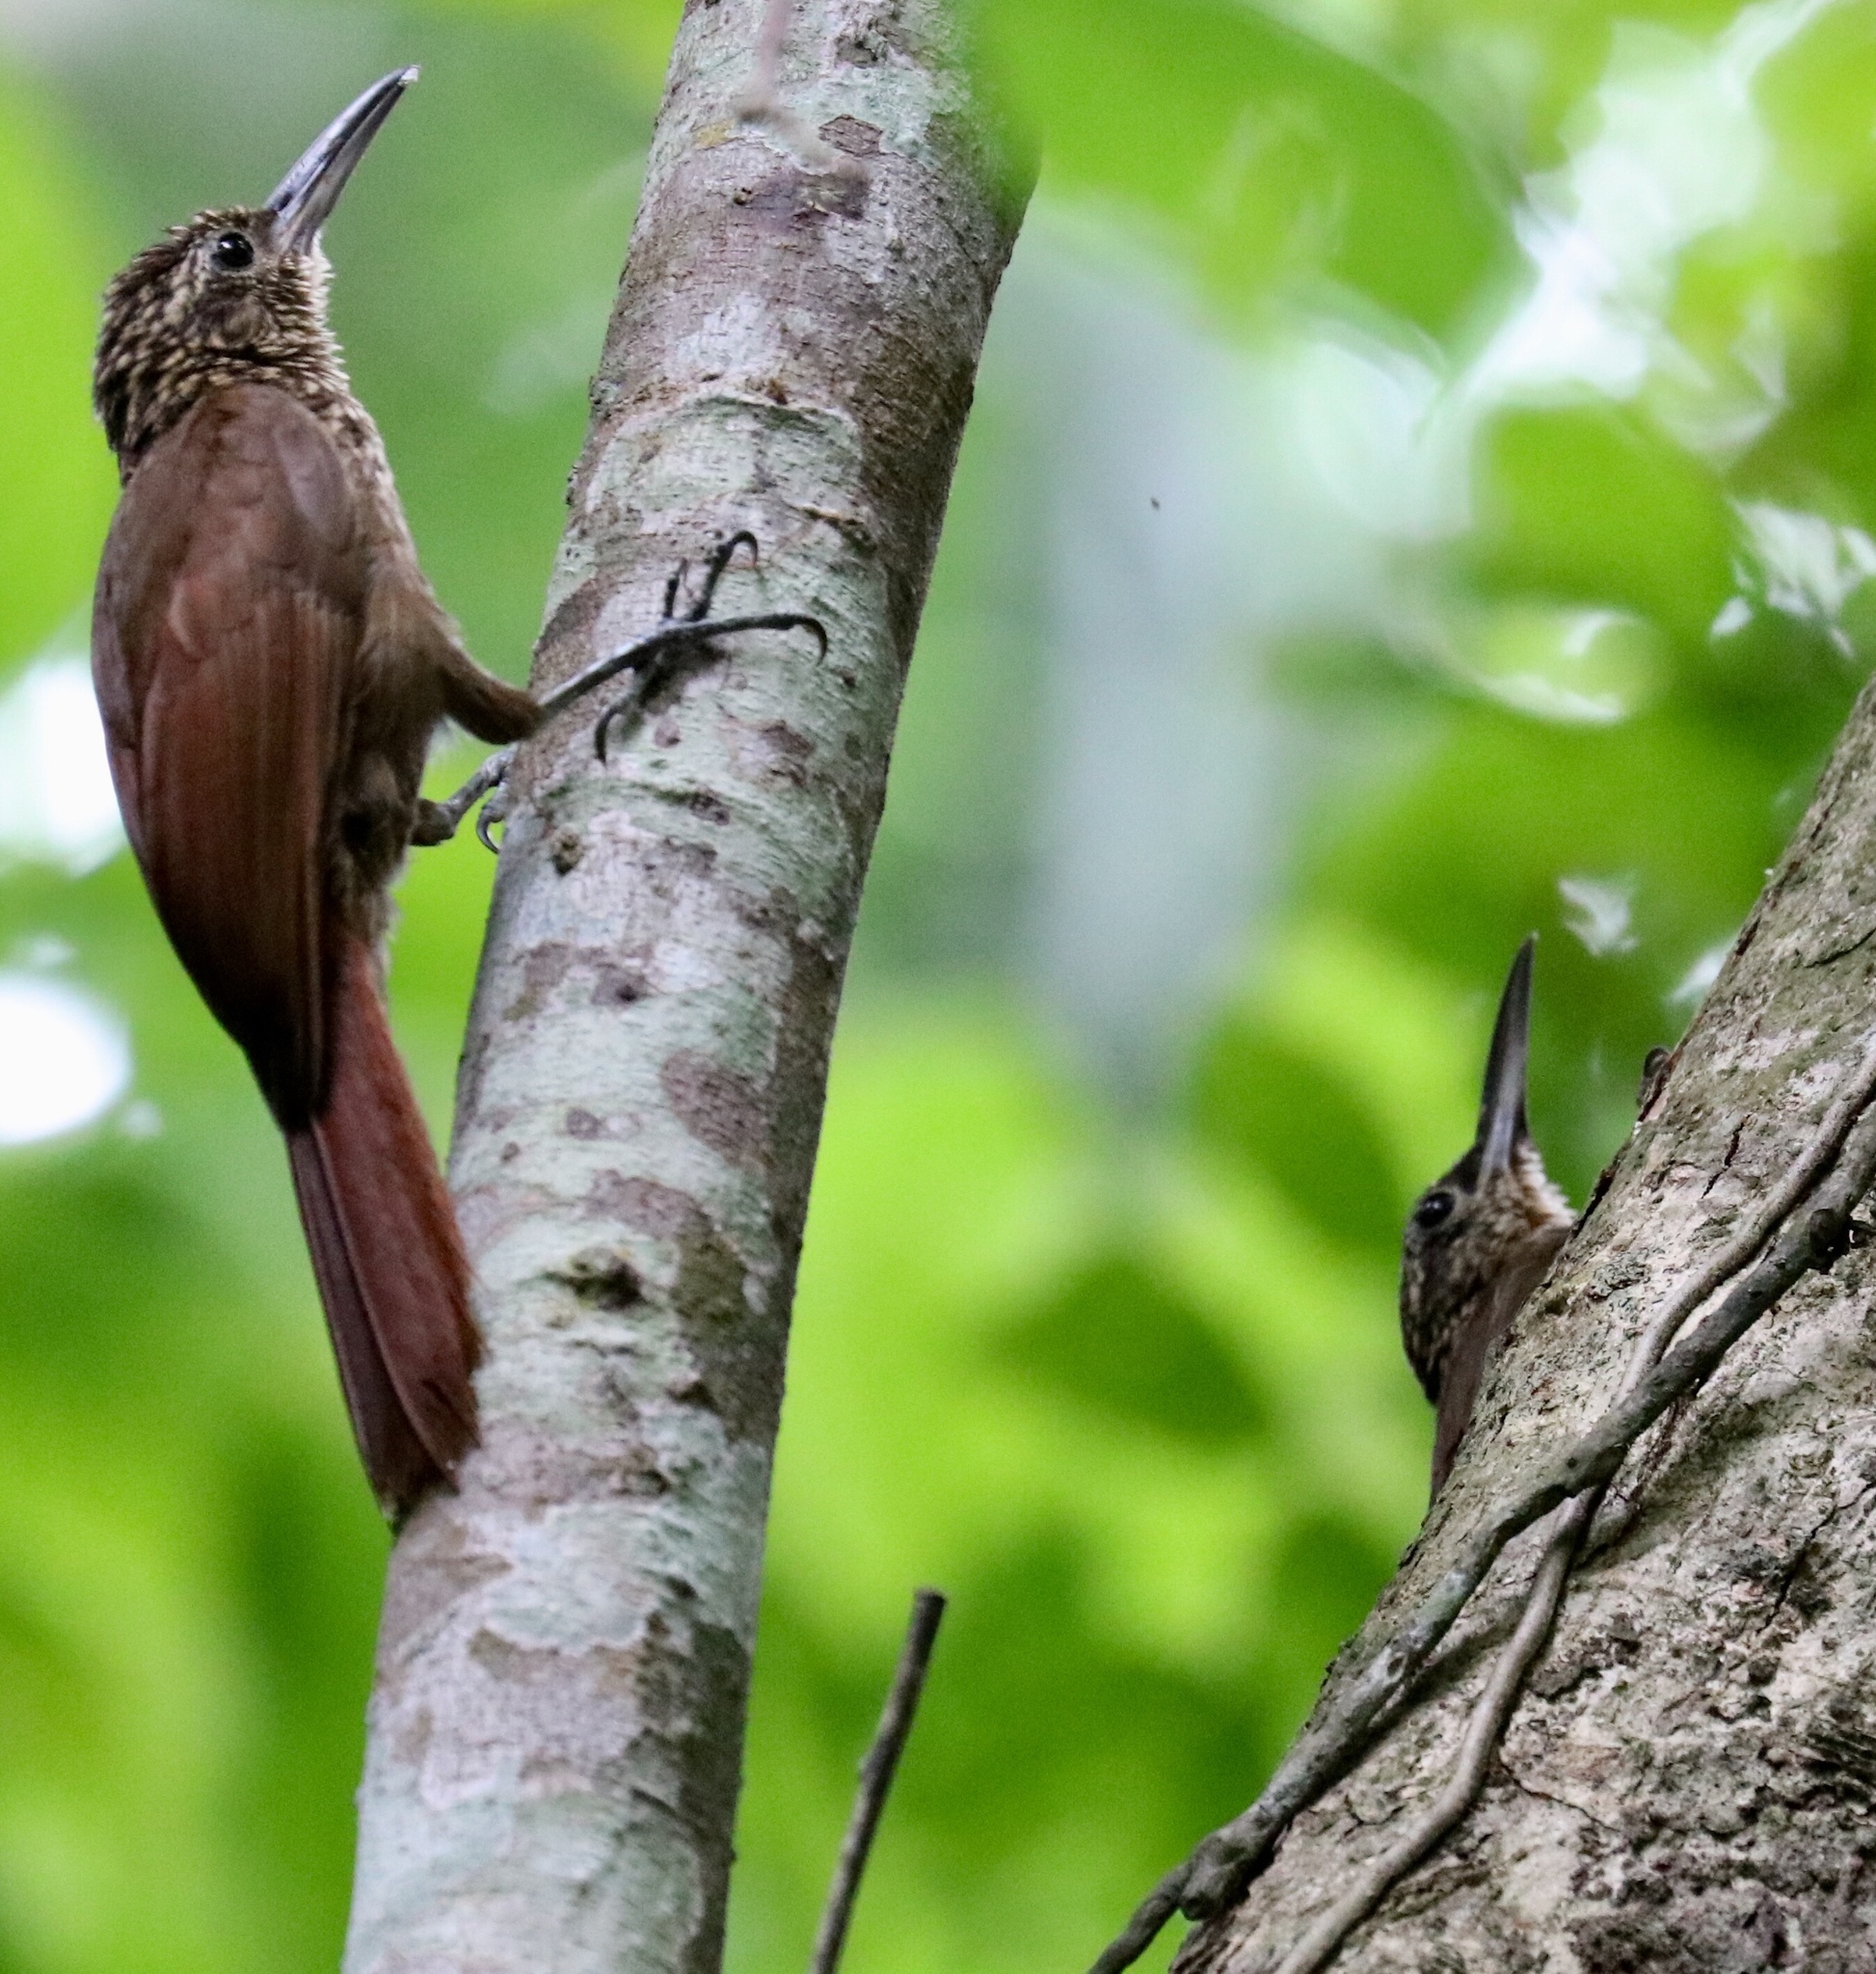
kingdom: Animalia
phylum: Chordata
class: Aves
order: Passeriformes
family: Furnariidae
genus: Xiphorhynchus
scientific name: Xiphorhynchus susurrans
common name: Cocoa woodcreeper
